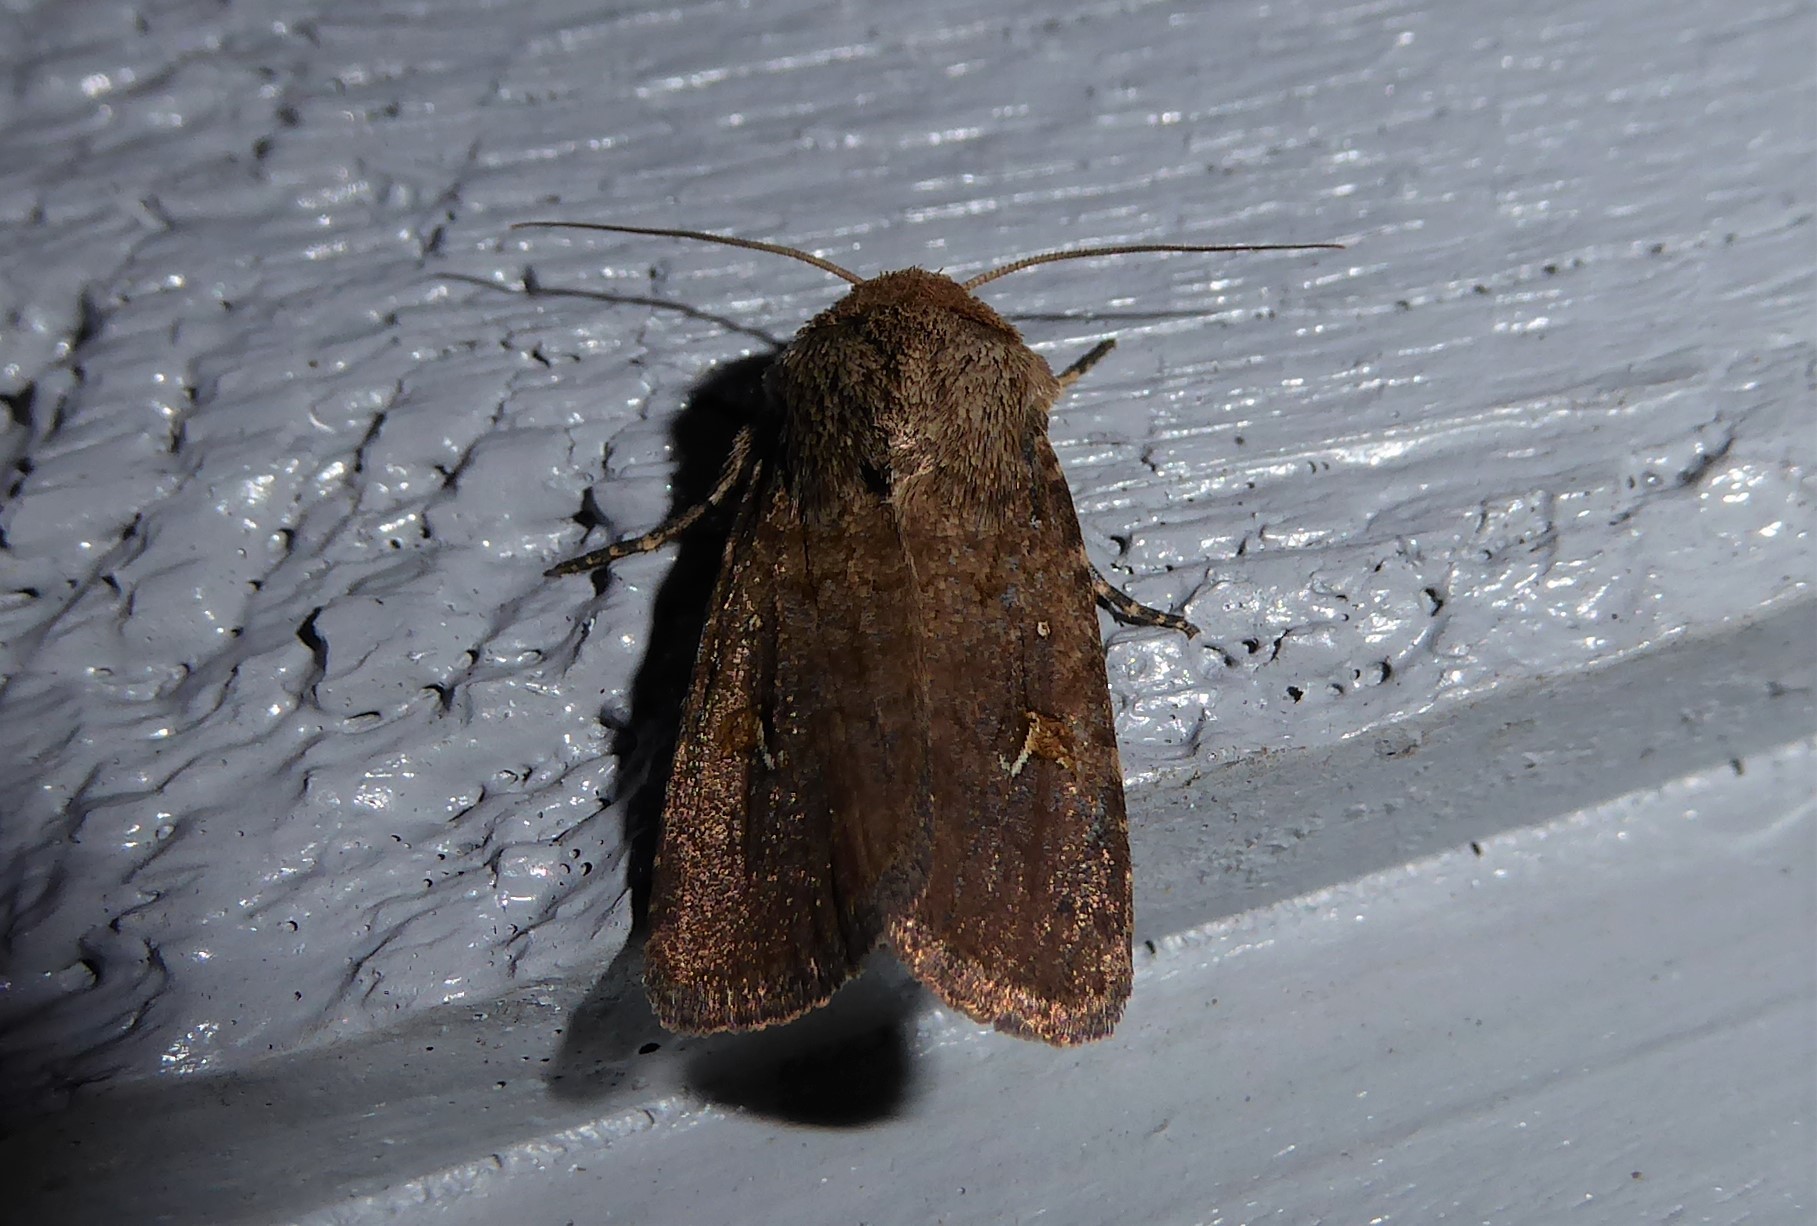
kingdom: Animalia
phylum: Arthropoda
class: Insecta
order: Lepidoptera
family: Noctuidae
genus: Proteuxoa
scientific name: Proteuxoa tetronycha
